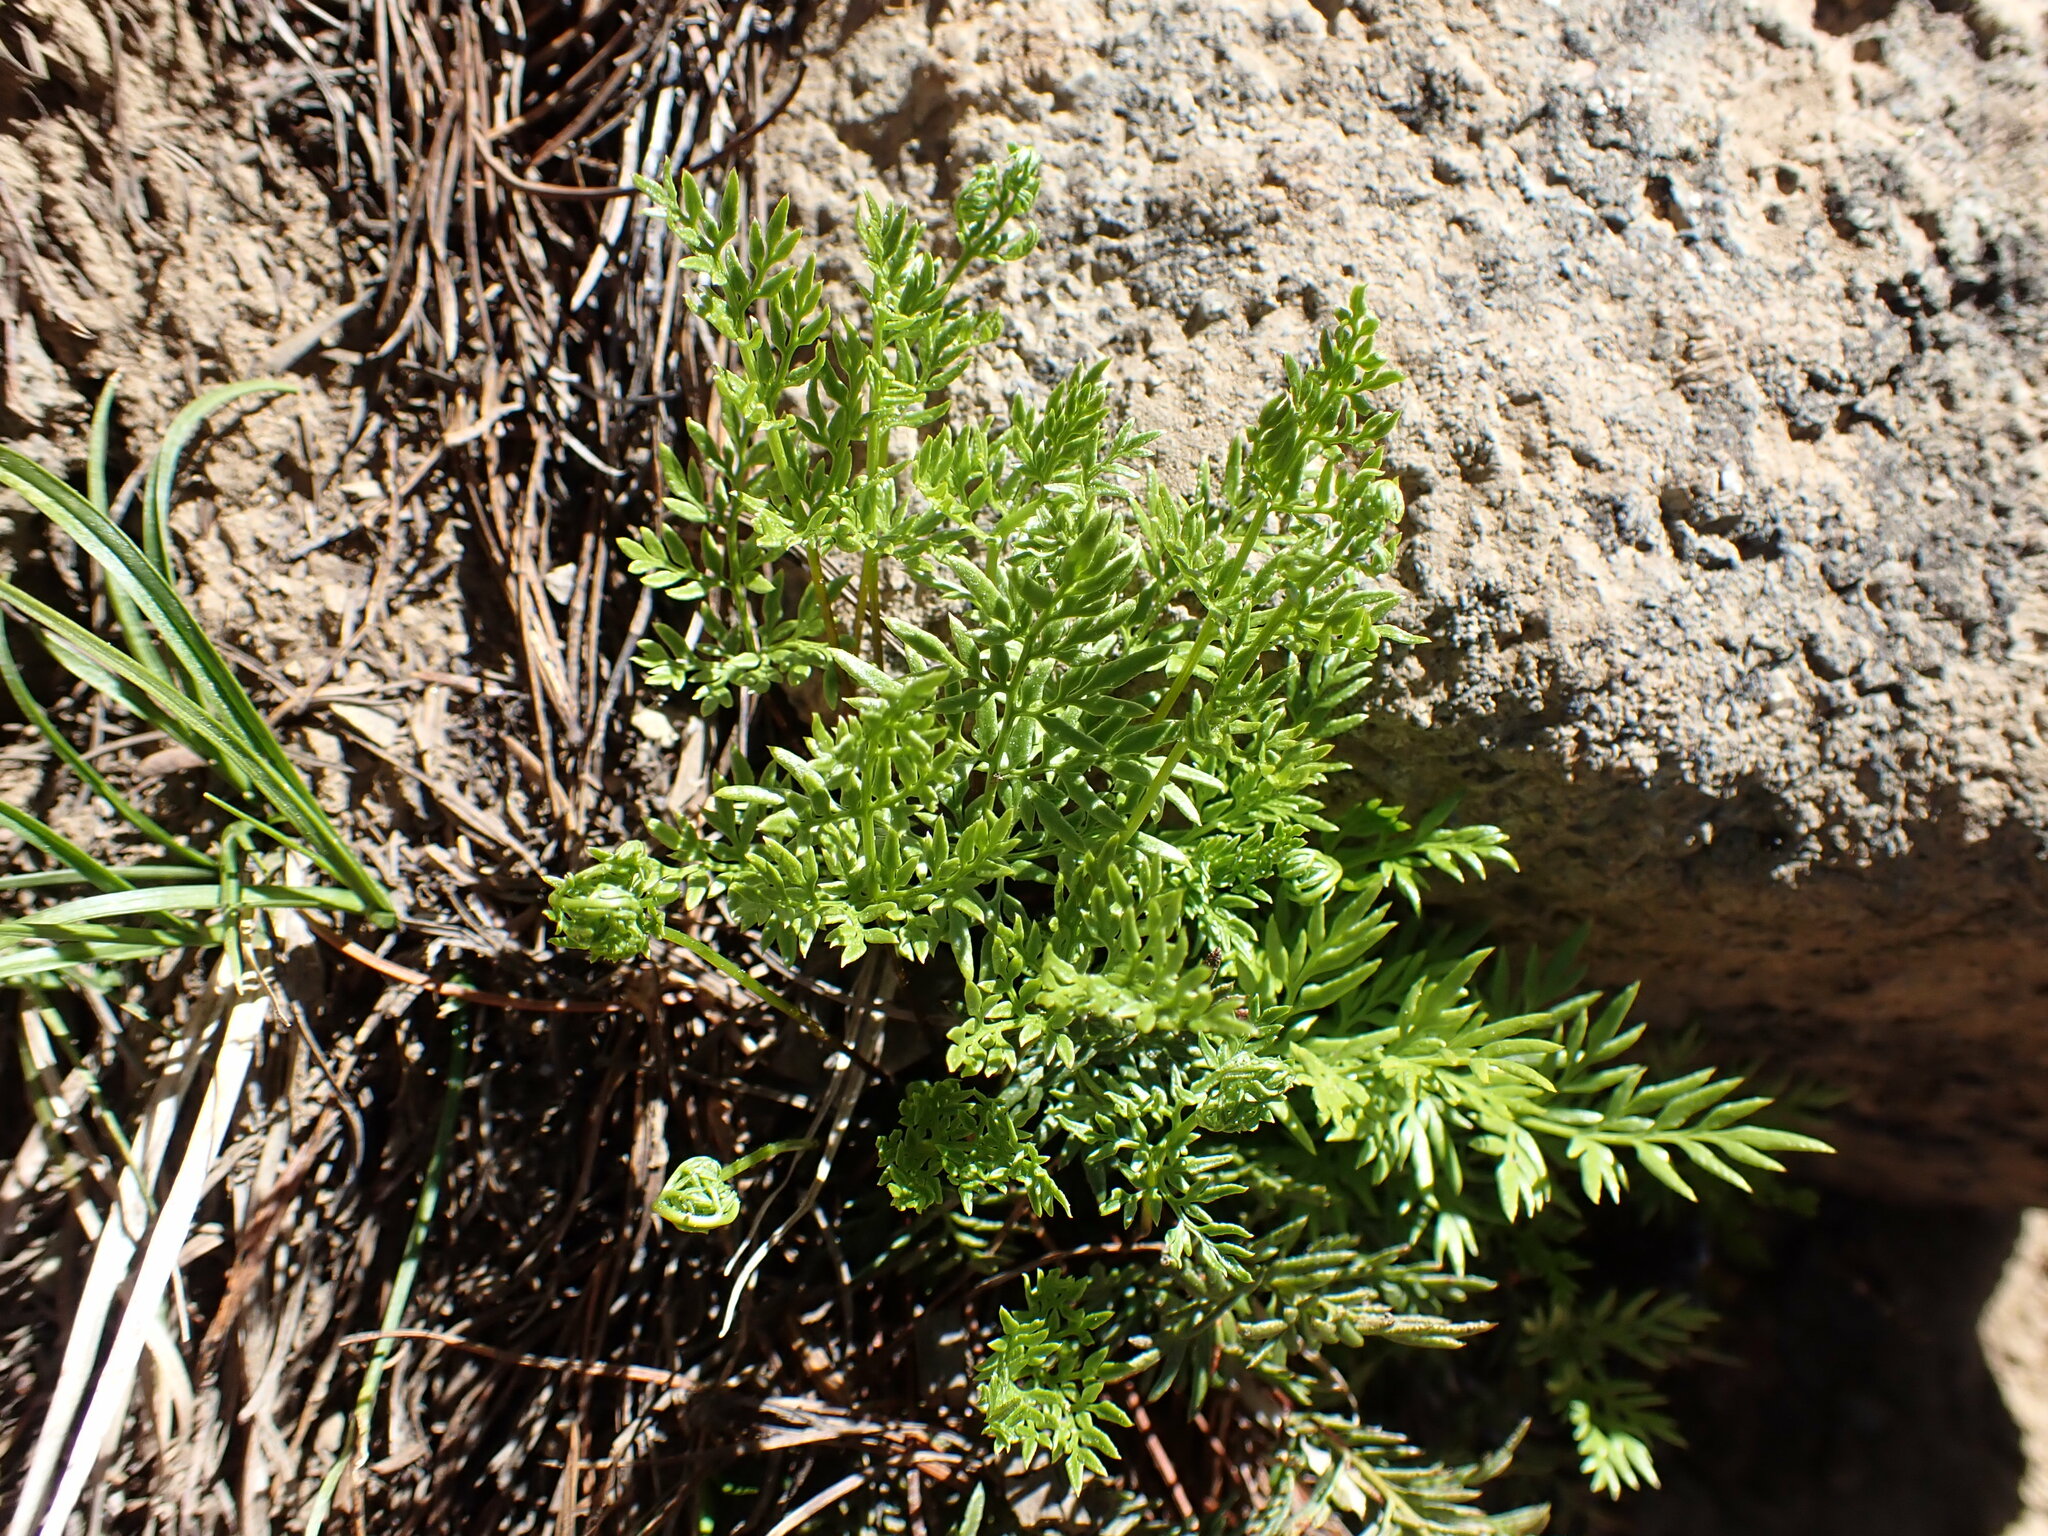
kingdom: Plantae
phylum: Tracheophyta
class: Polypodiopsida
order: Polypodiales
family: Pteridaceae
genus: Aspidotis
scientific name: Aspidotis densa
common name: Indian's dream
